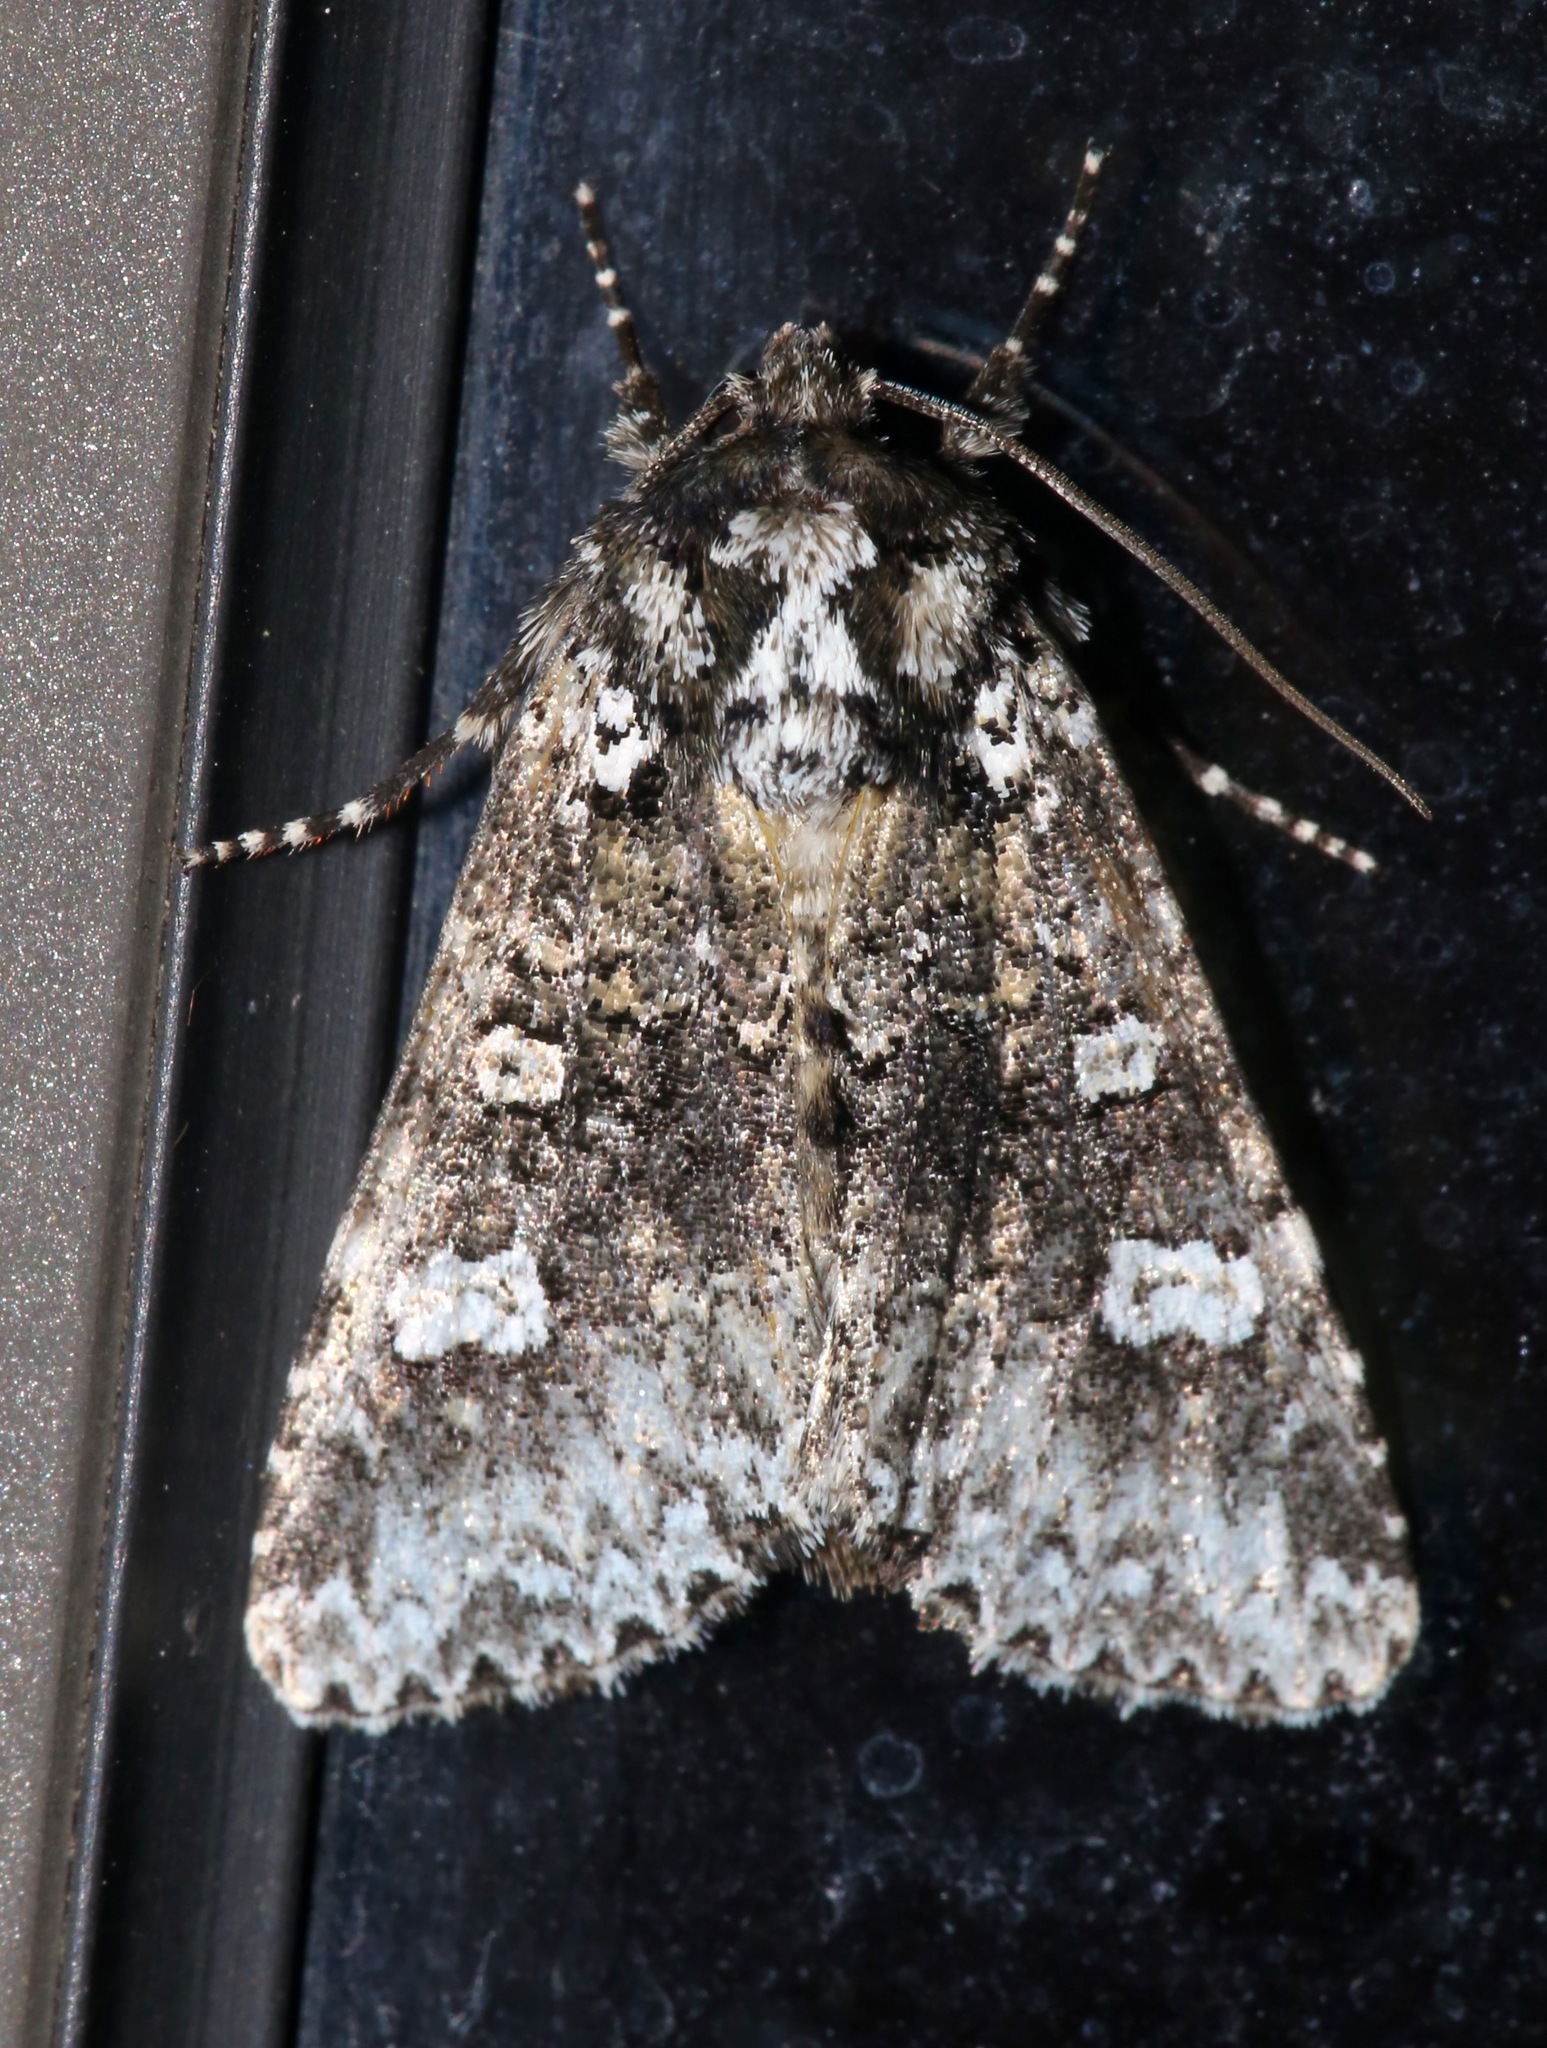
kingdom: Animalia
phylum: Arthropoda
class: Insecta
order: Lepidoptera
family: Noctuidae
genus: Melanchra
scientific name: Melanchra adjuncta
